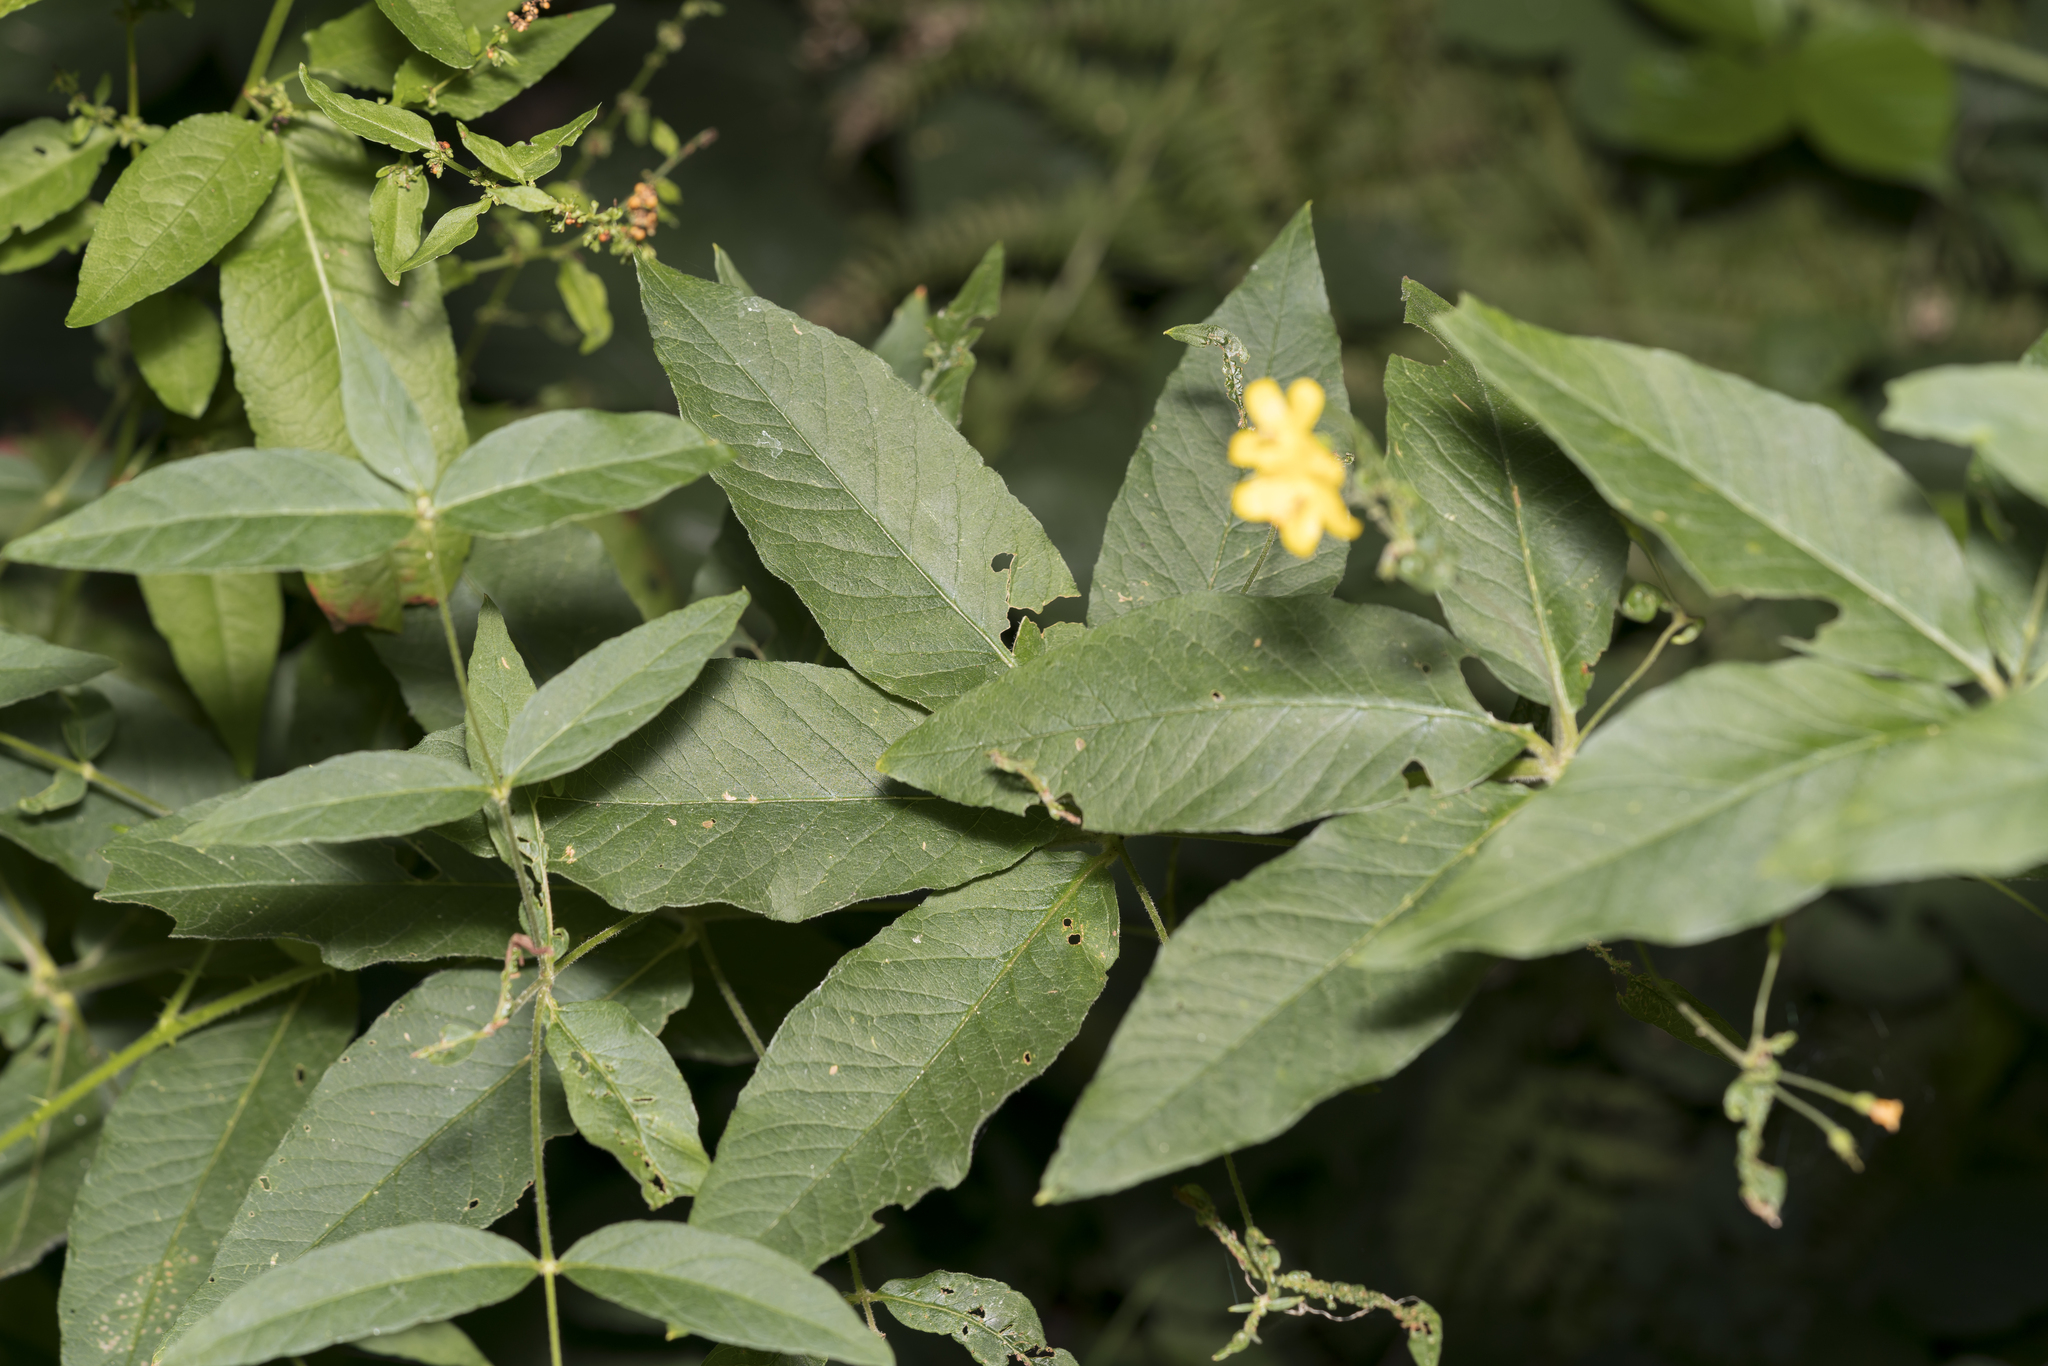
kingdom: Plantae
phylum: Tracheophyta
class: Magnoliopsida
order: Ericales
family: Primulaceae
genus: Lysimachia
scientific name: Lysimachia vulgaris
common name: Yellow loosestrife
